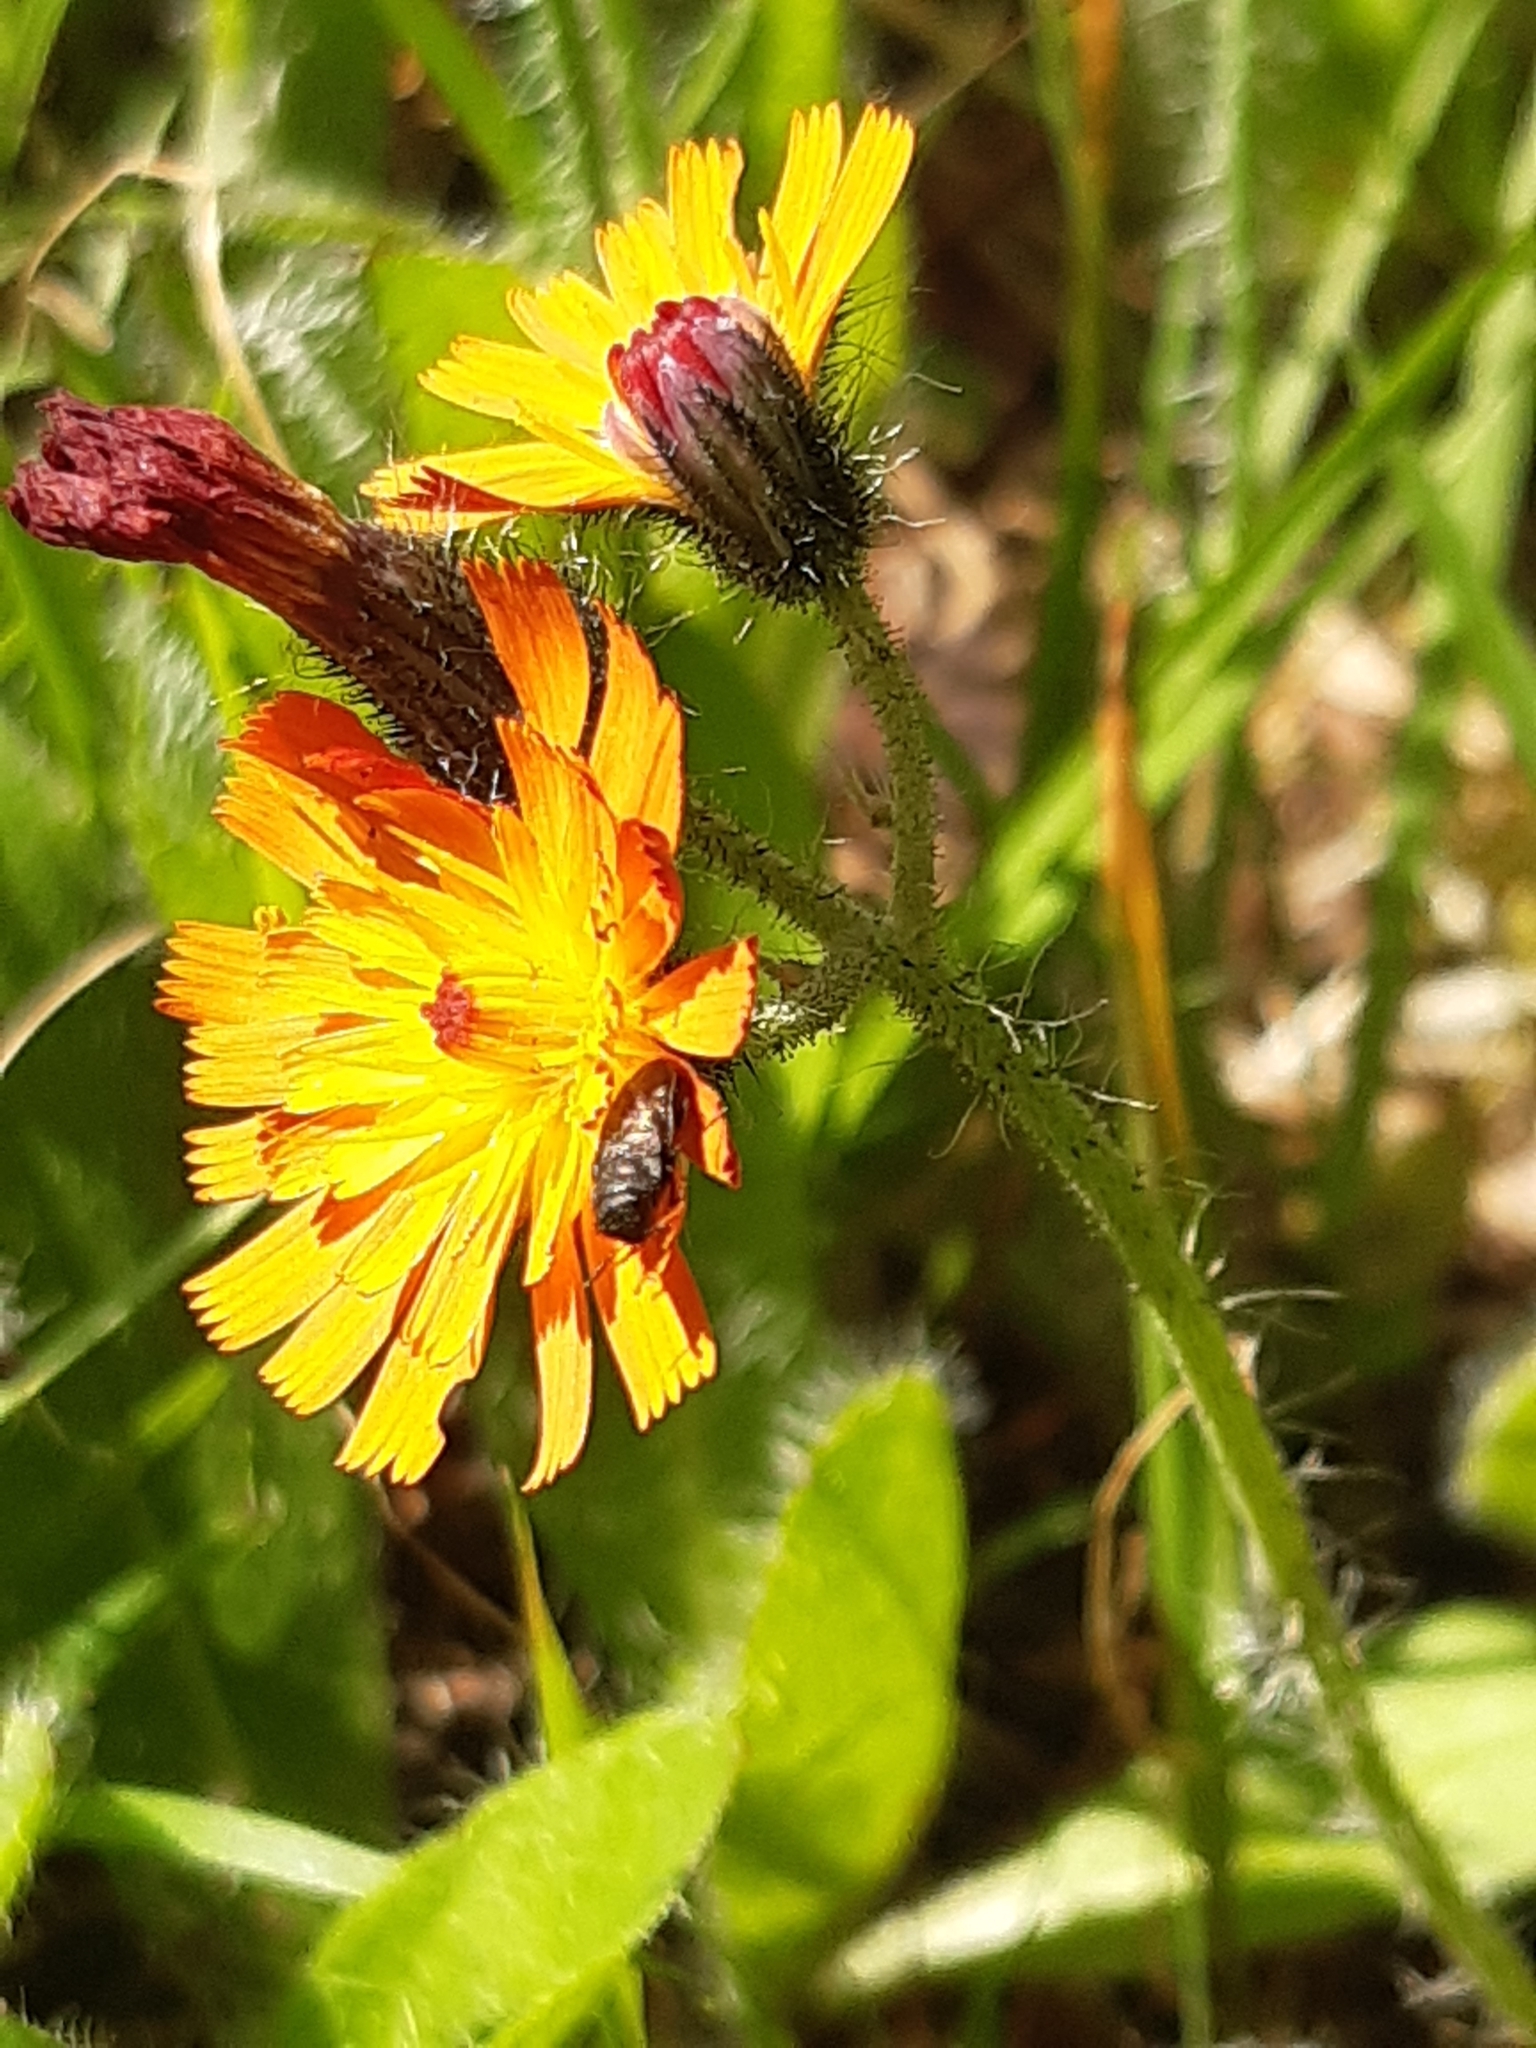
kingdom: Plantae
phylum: Tracheophyta
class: Magnoliopsida
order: Asterales
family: Asteraceae
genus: Pilosella
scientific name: Pilosella aurantiaca
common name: Fox-and-cubs
